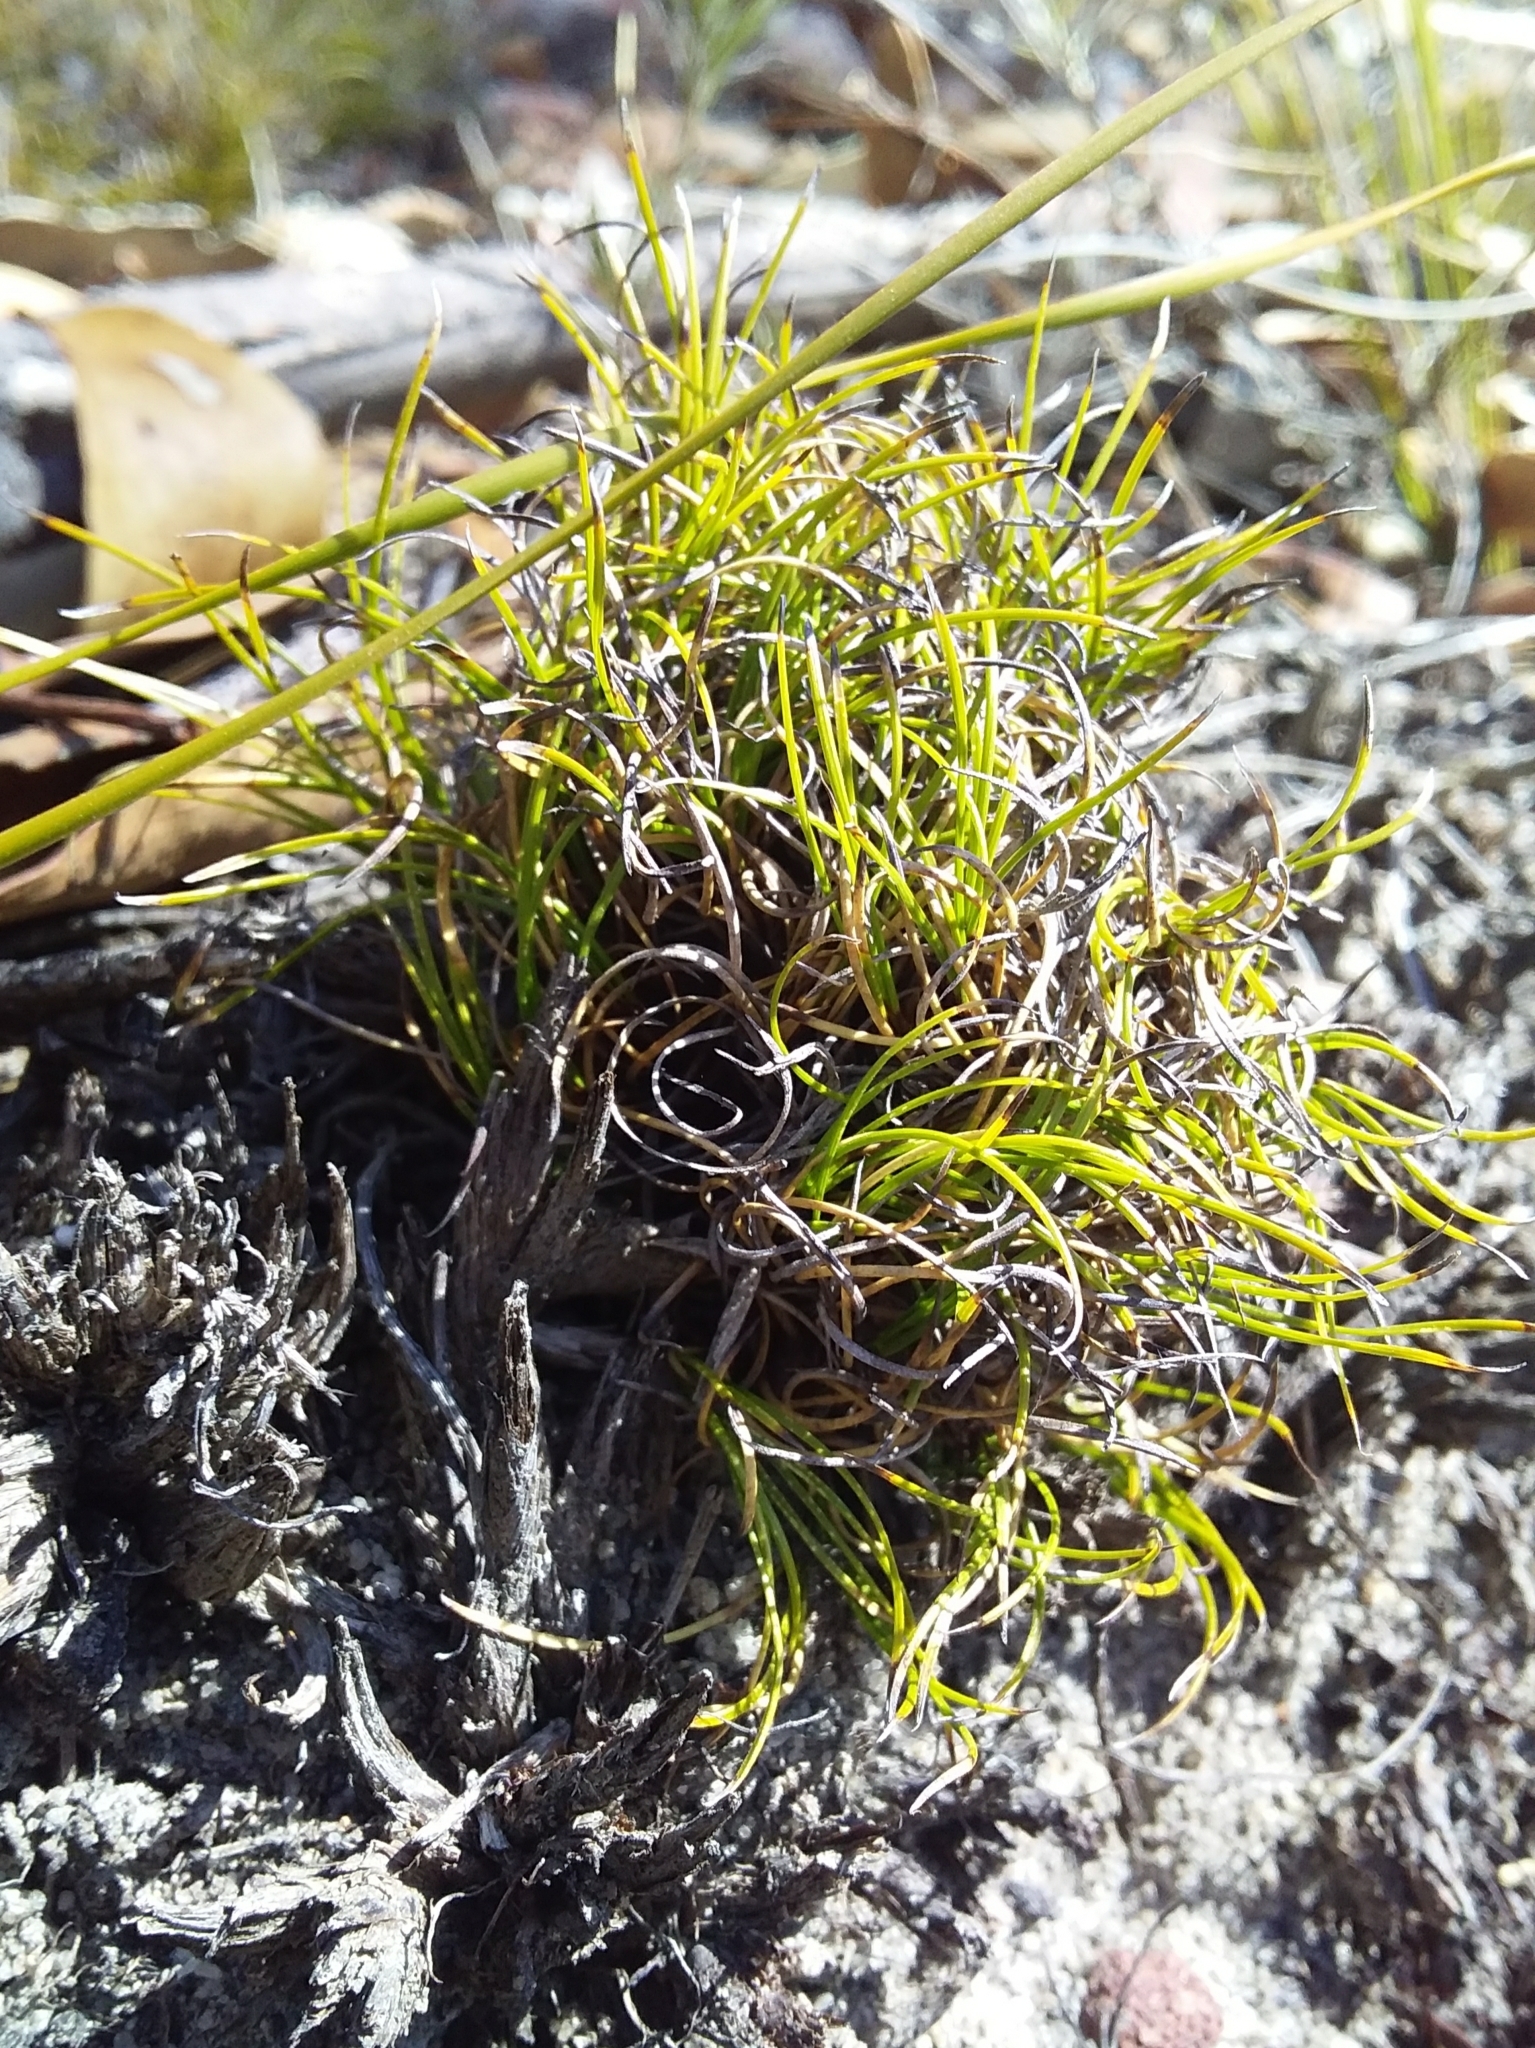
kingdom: Plantae
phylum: Tracheophyta
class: Liliopsida
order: Poales
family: Cyperaceae
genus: Schoenus
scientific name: Schoenus breviculmis
